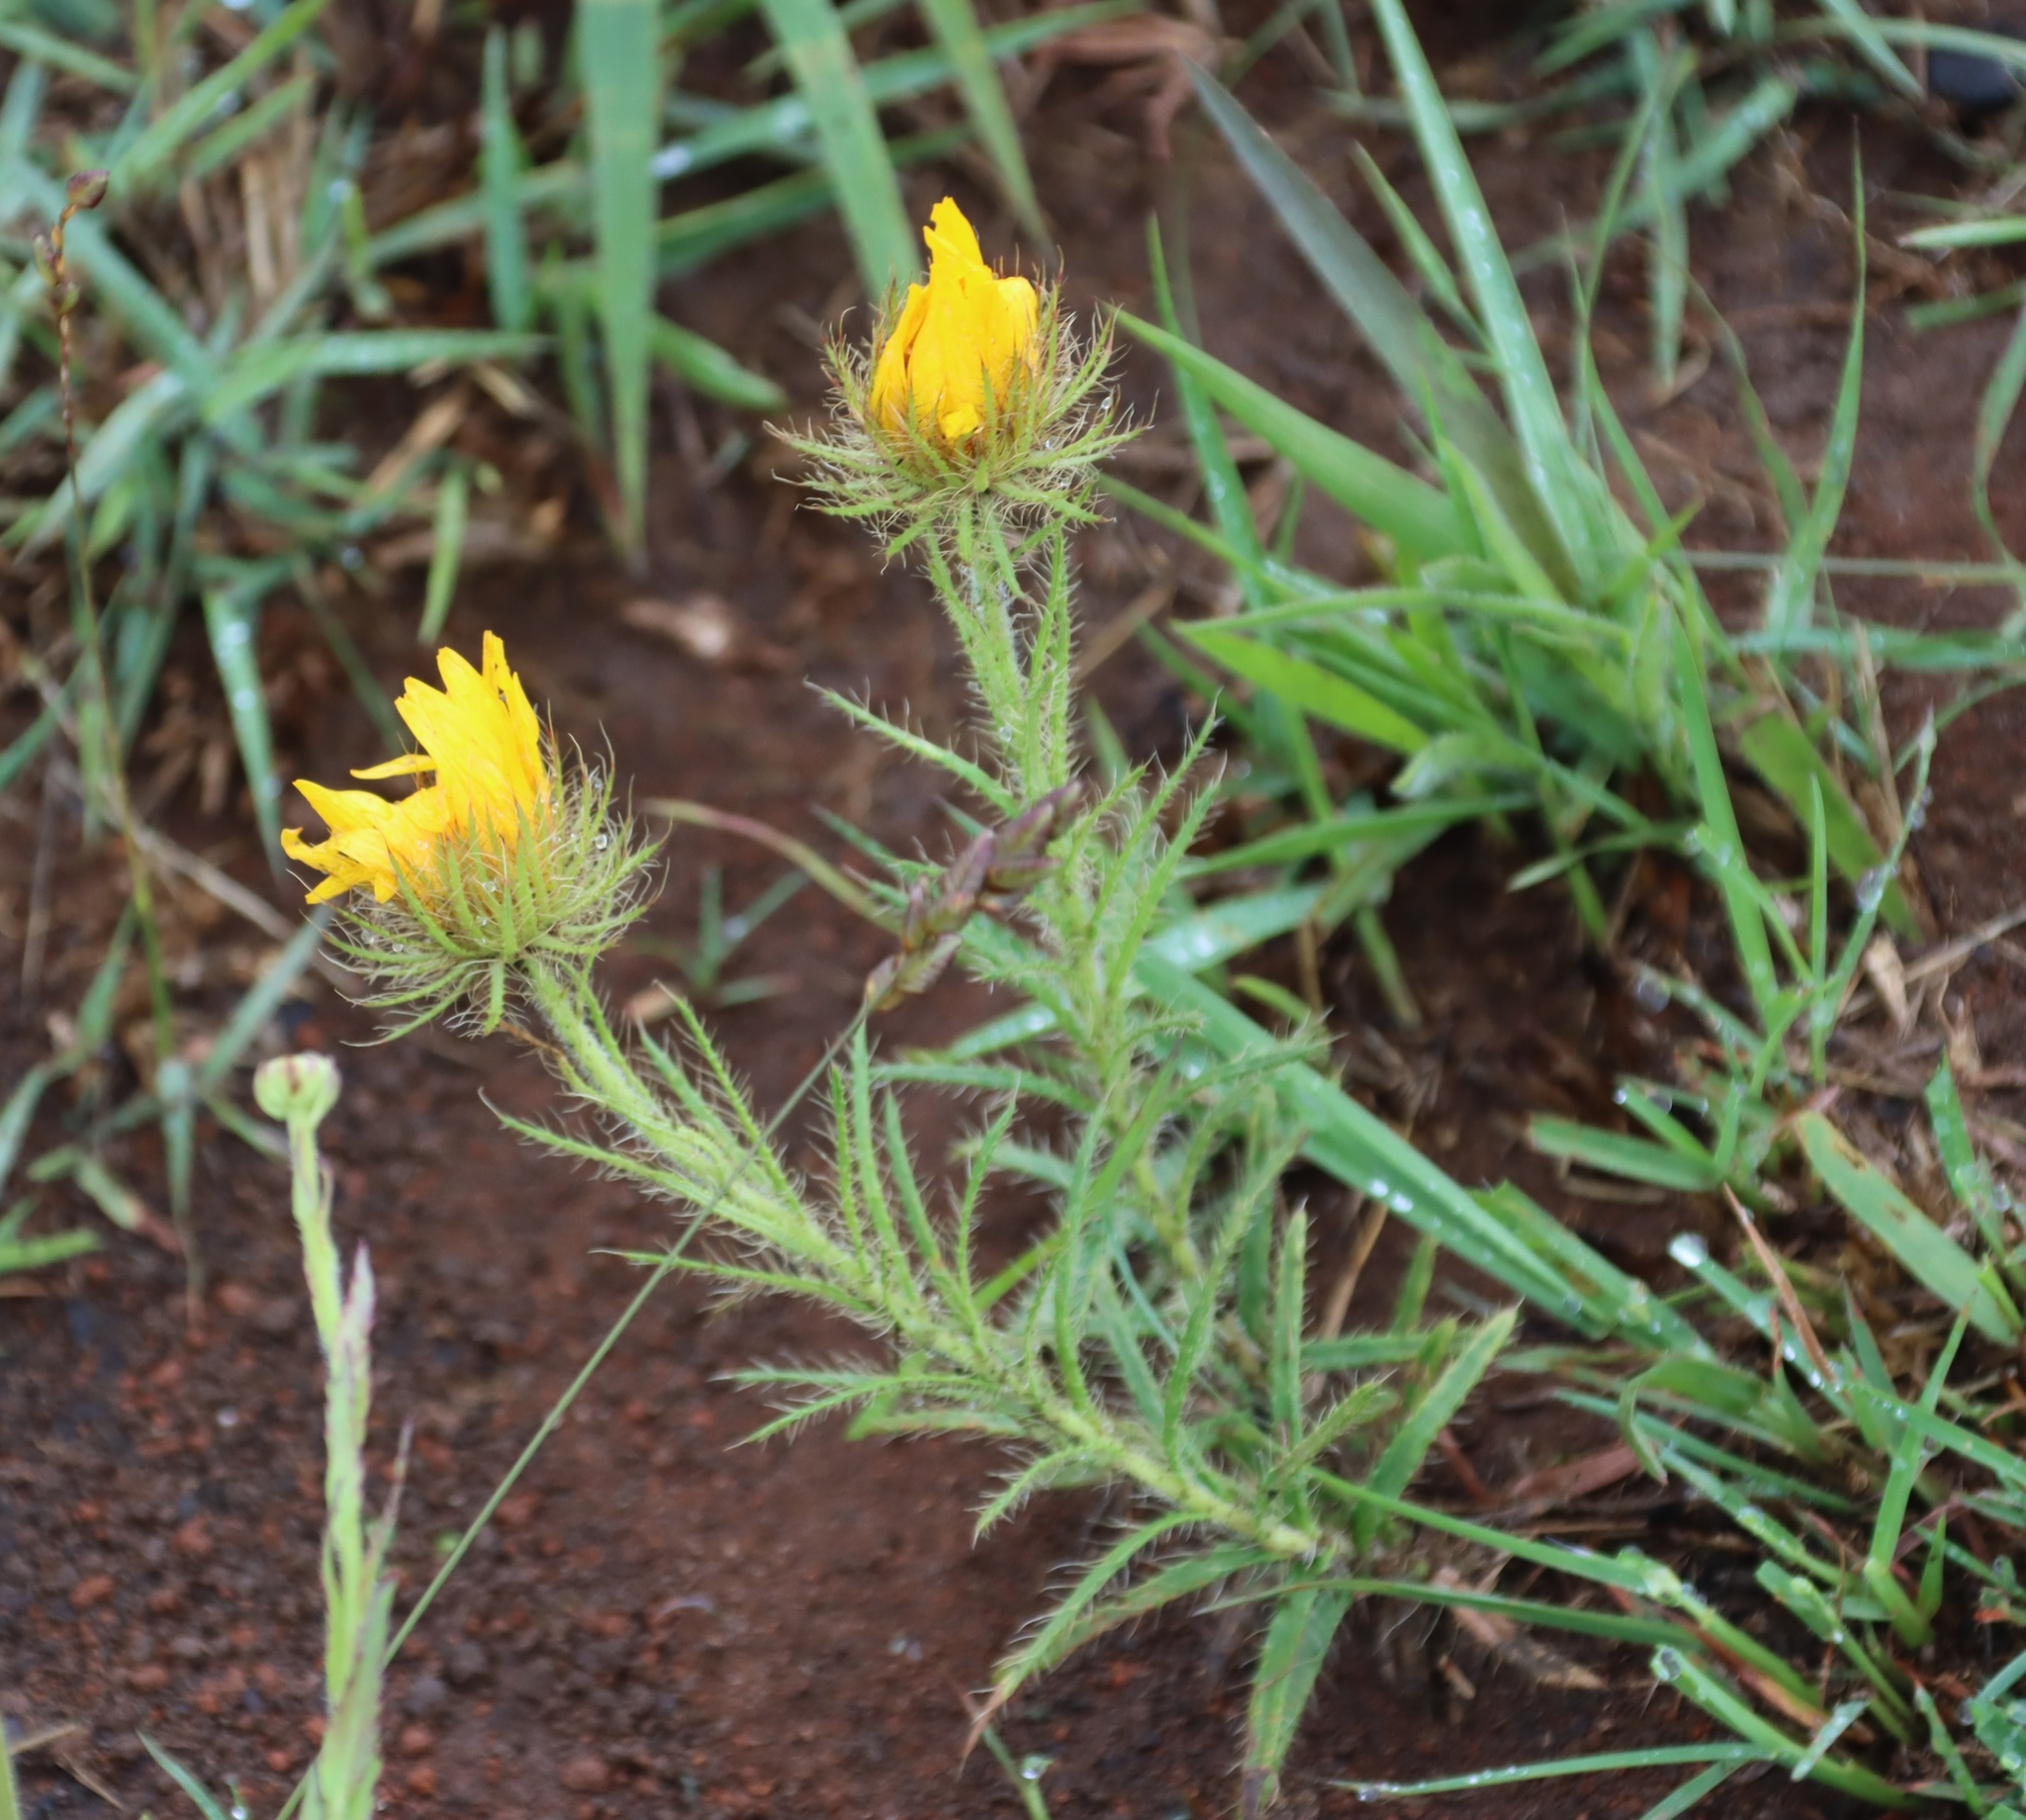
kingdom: Plantae
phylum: Tracheophyta
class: Magnoliopsida
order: Asterales
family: Asteraceae
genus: Berkheya
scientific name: Berkheya echinacea
